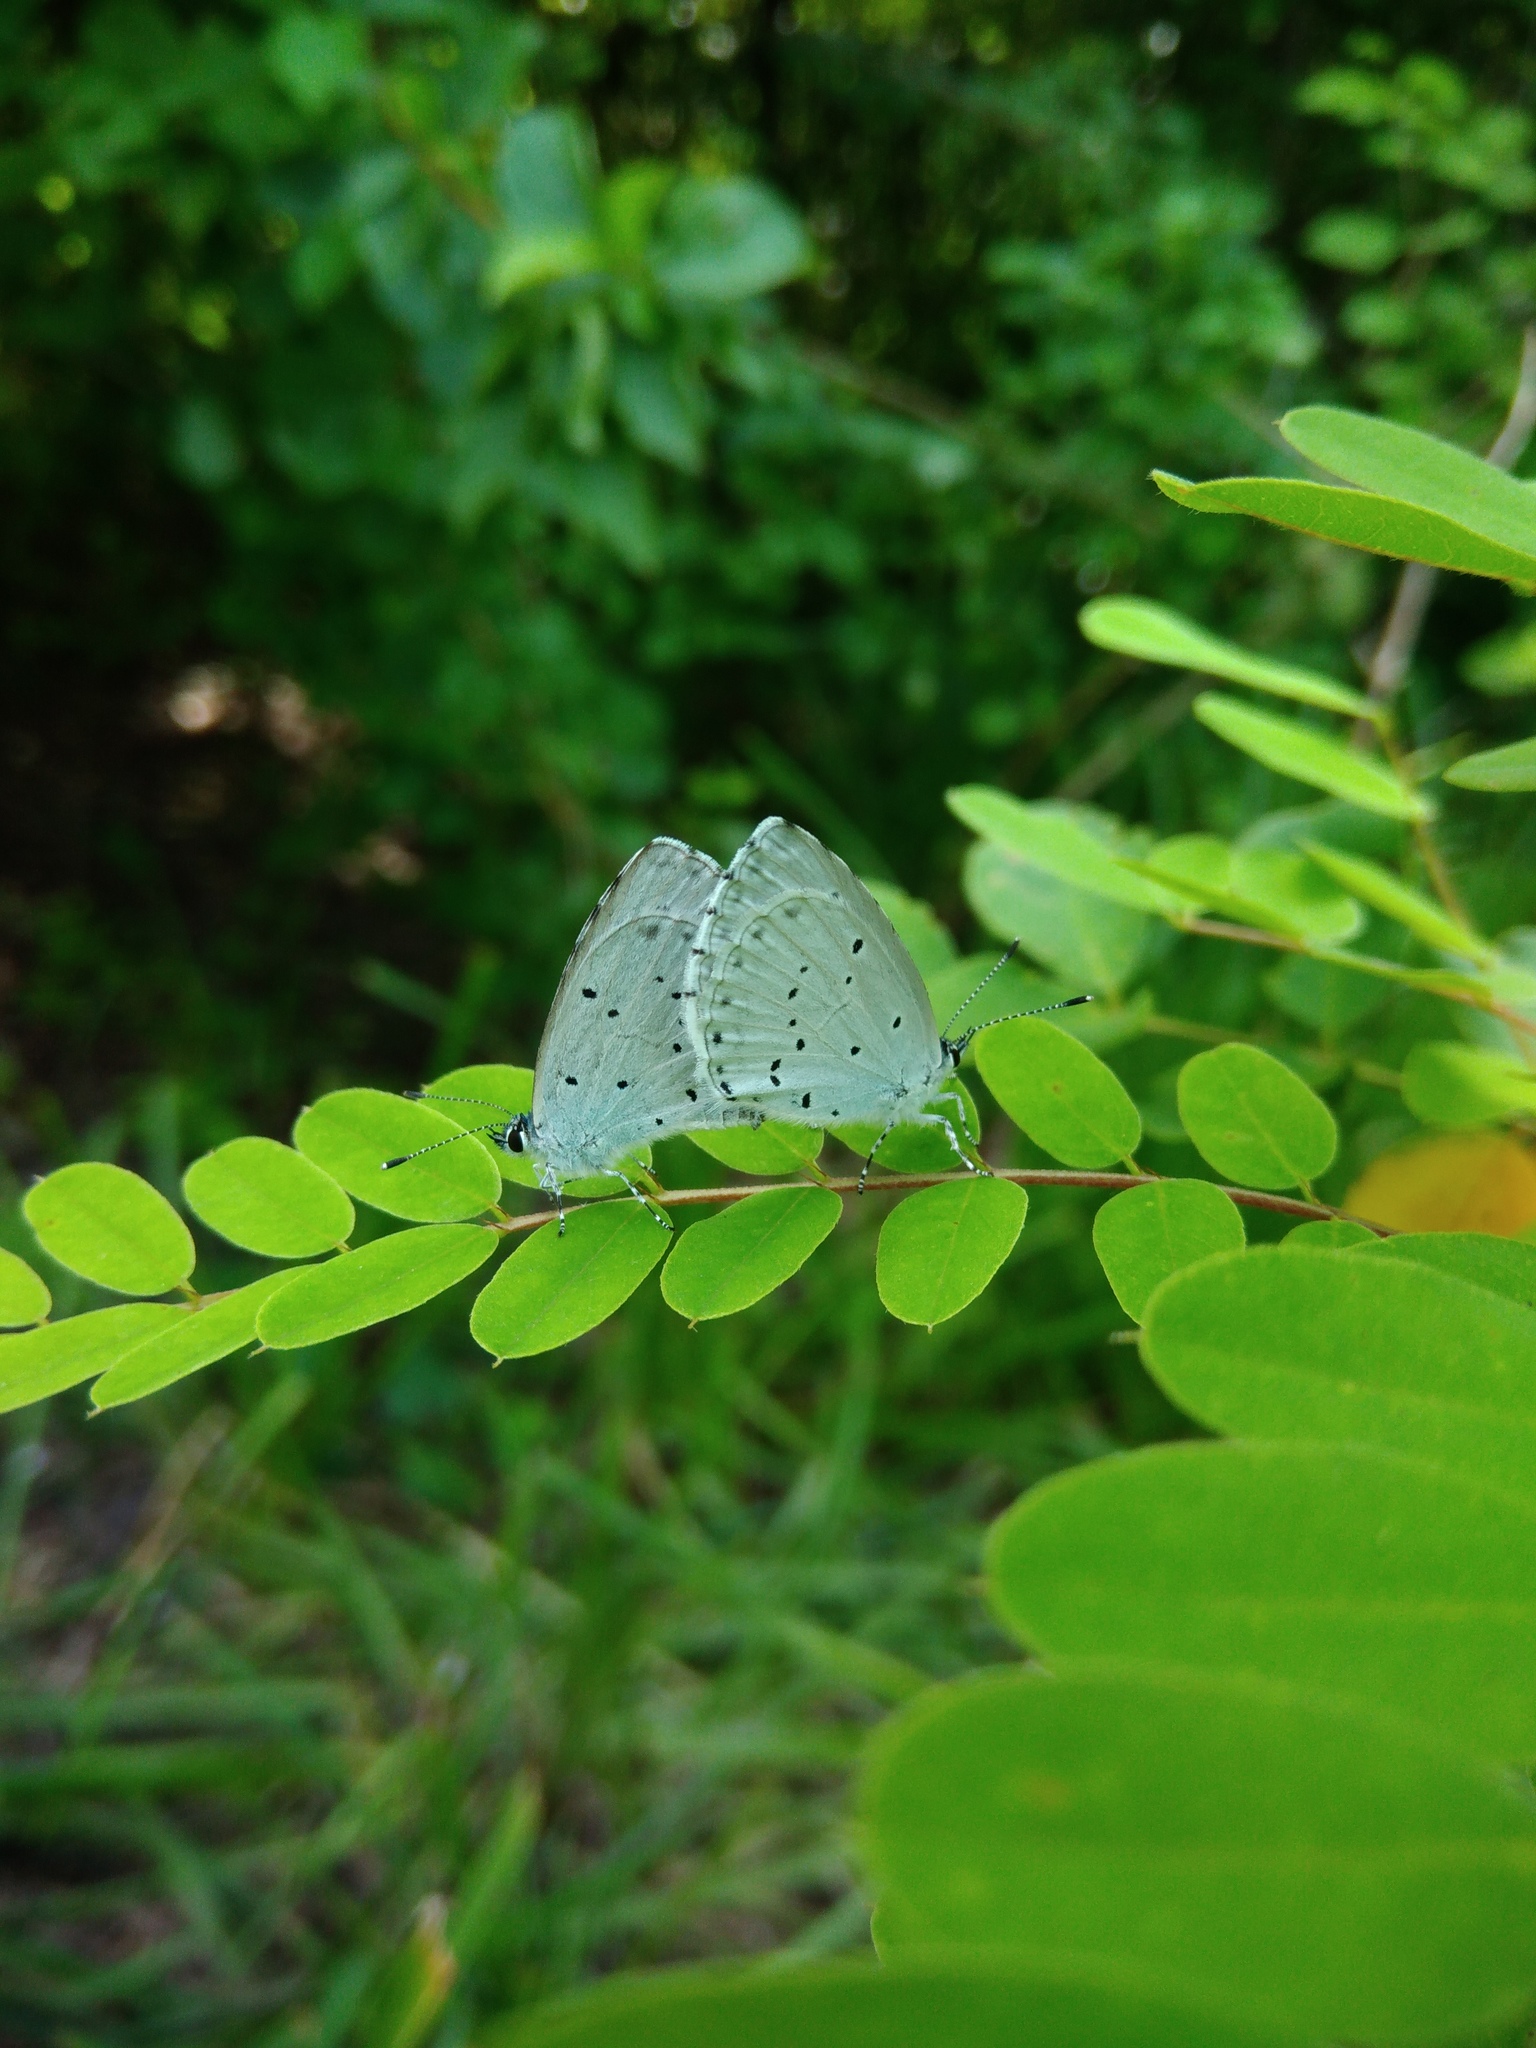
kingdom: Animalia
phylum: Arthropoda
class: Insecta
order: Lepidoptera
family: Lycaenidae
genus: Celastrina
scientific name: Celastrina argiolus
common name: Holly blue
